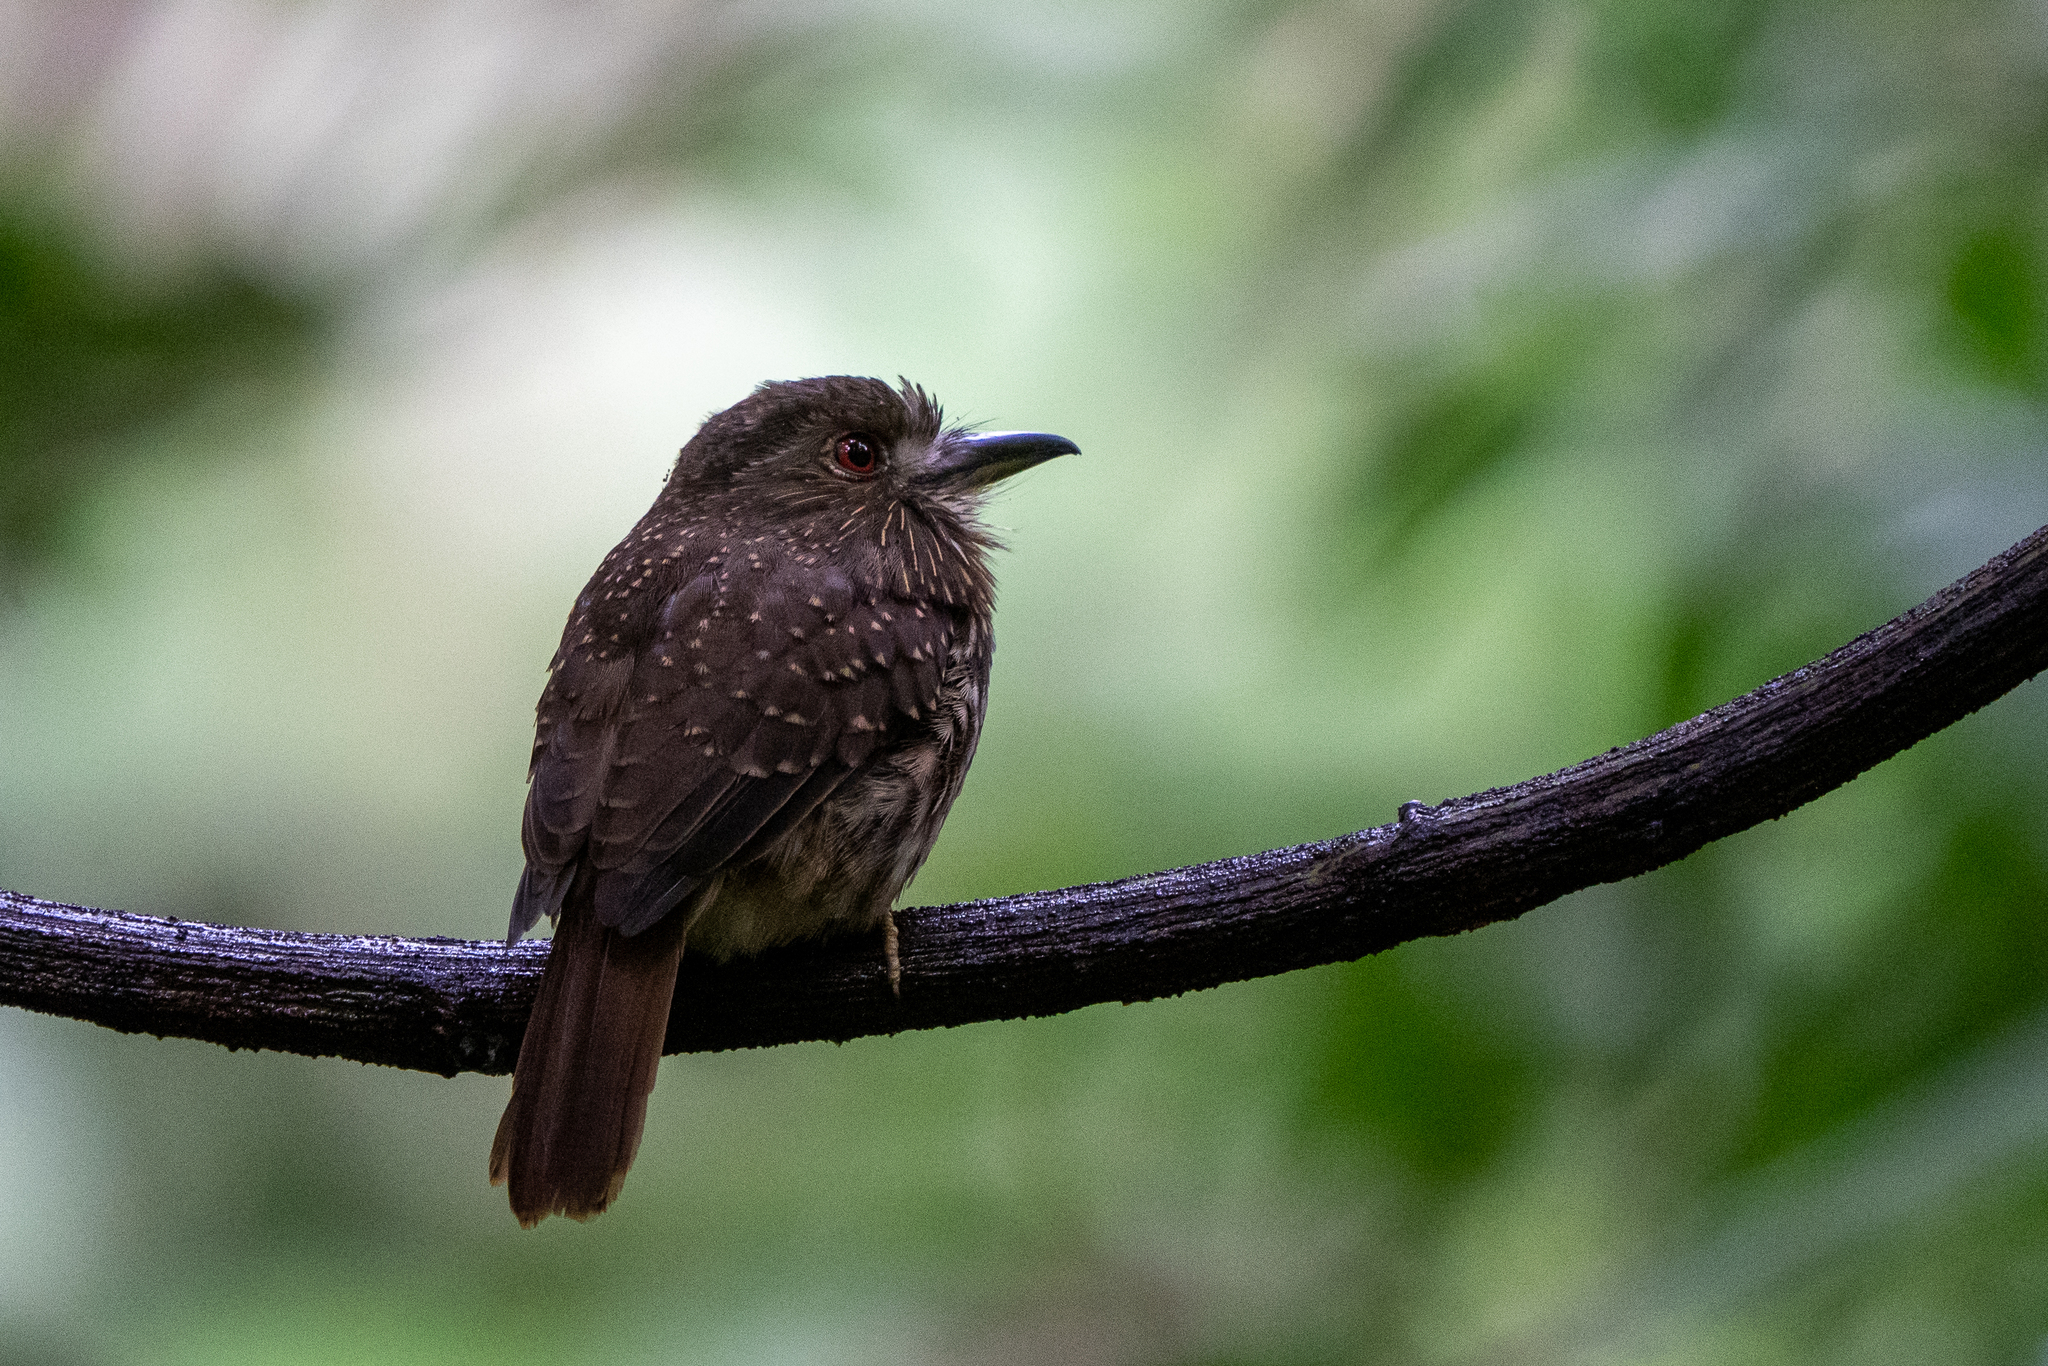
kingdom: Animalia
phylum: Chordata
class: Aves
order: Piciformes
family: Bucconidae
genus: Malacoptila
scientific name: Malacoptila panamensis
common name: White-whiskered puffbird
